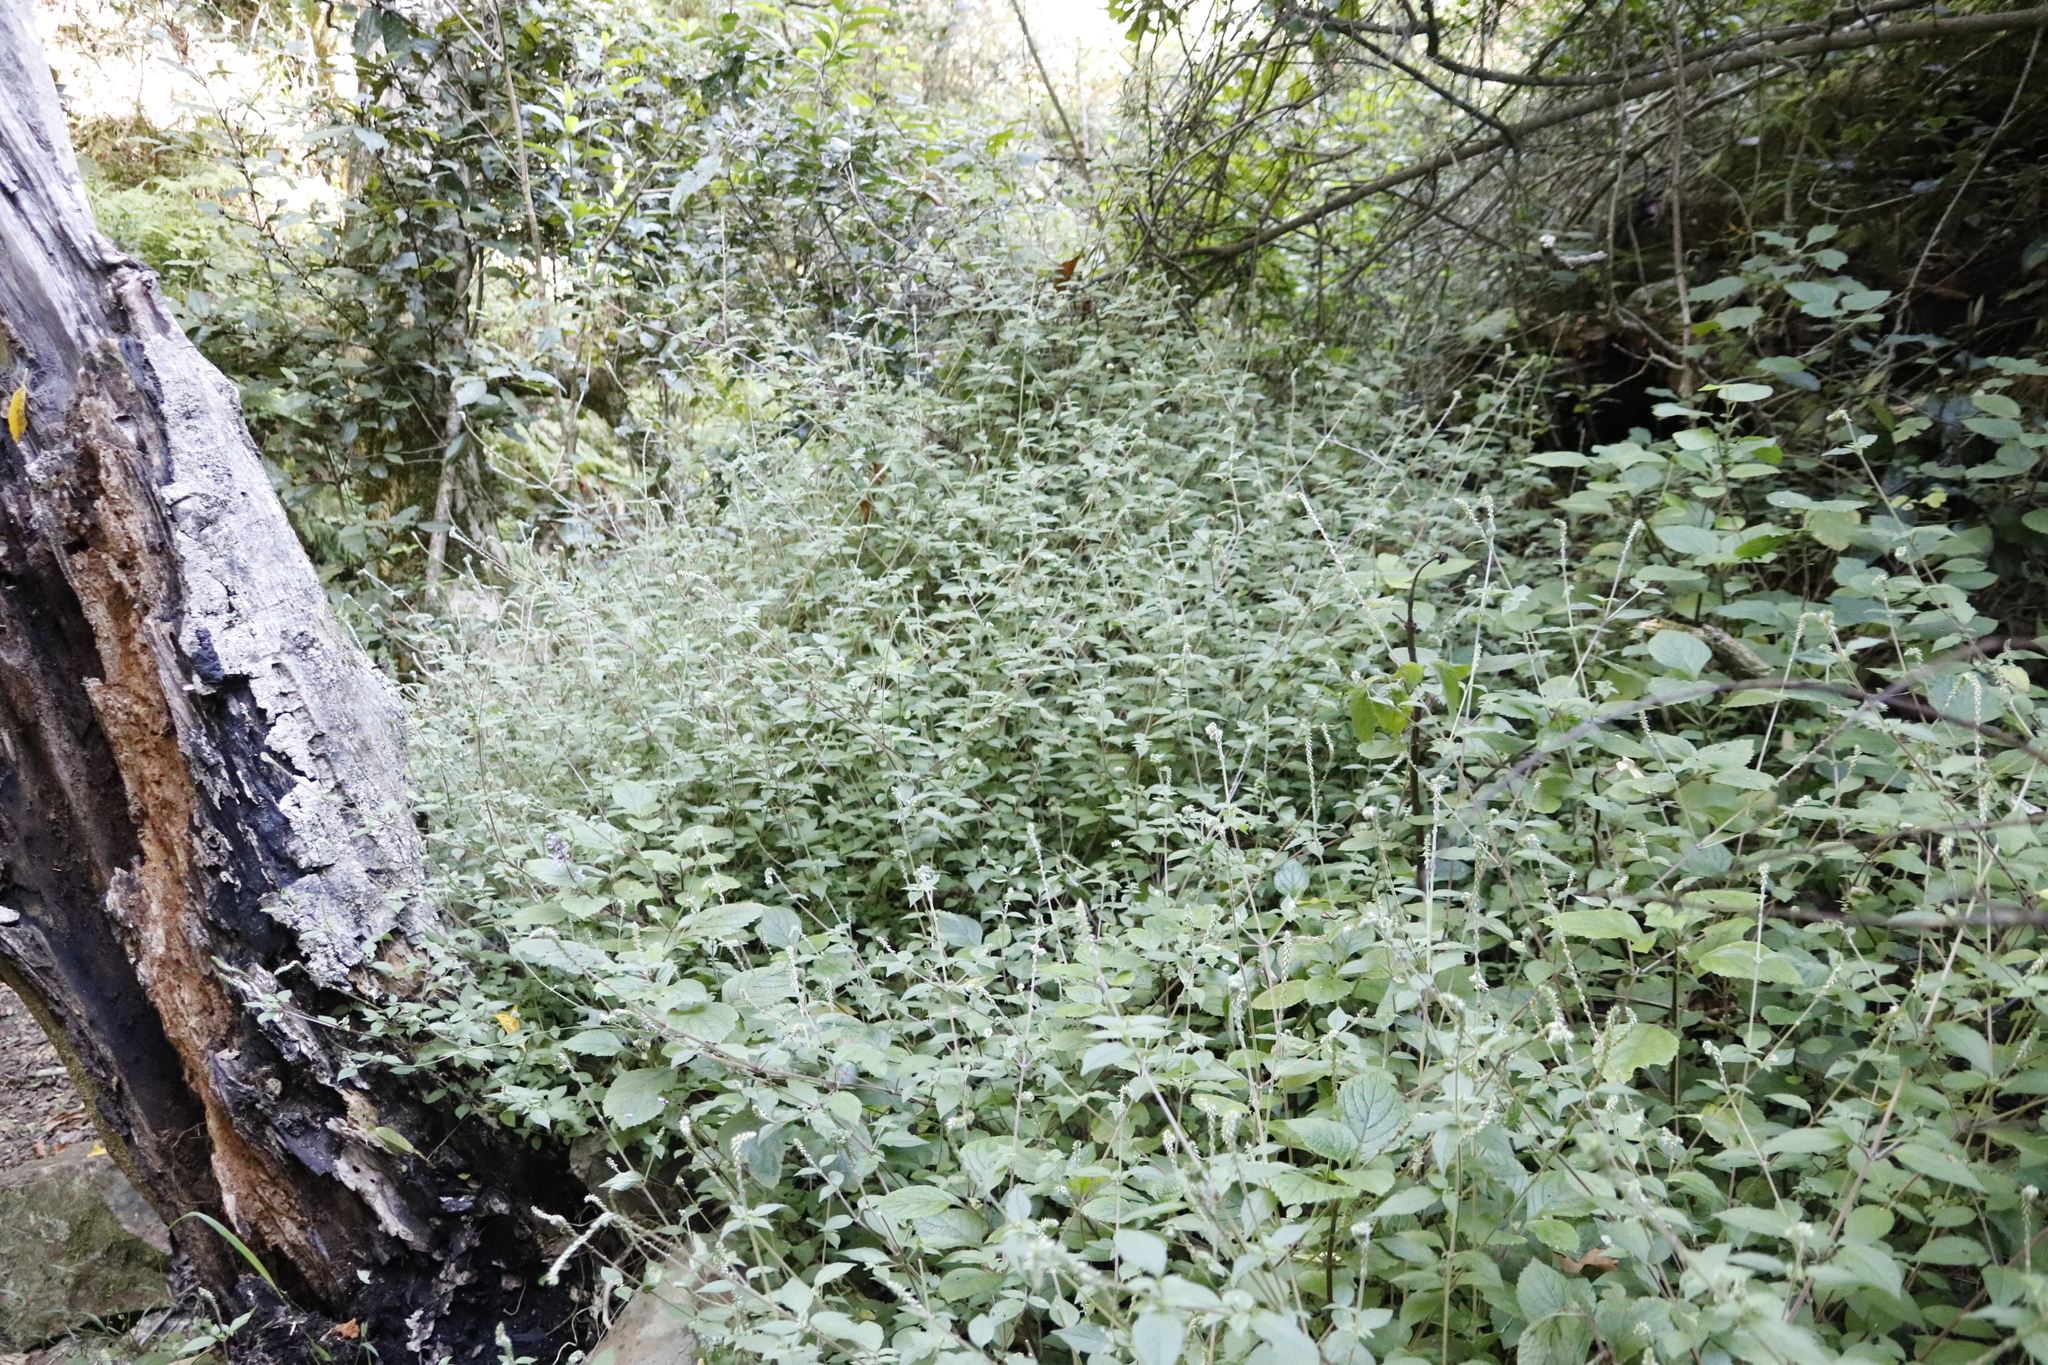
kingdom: Plantae
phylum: Tracheophyta
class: Magnoliopsida
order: Caryophyllales
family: Amaranthaceae
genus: Achyranthes
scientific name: Achyranthes aspera
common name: Devil's horsewhip
